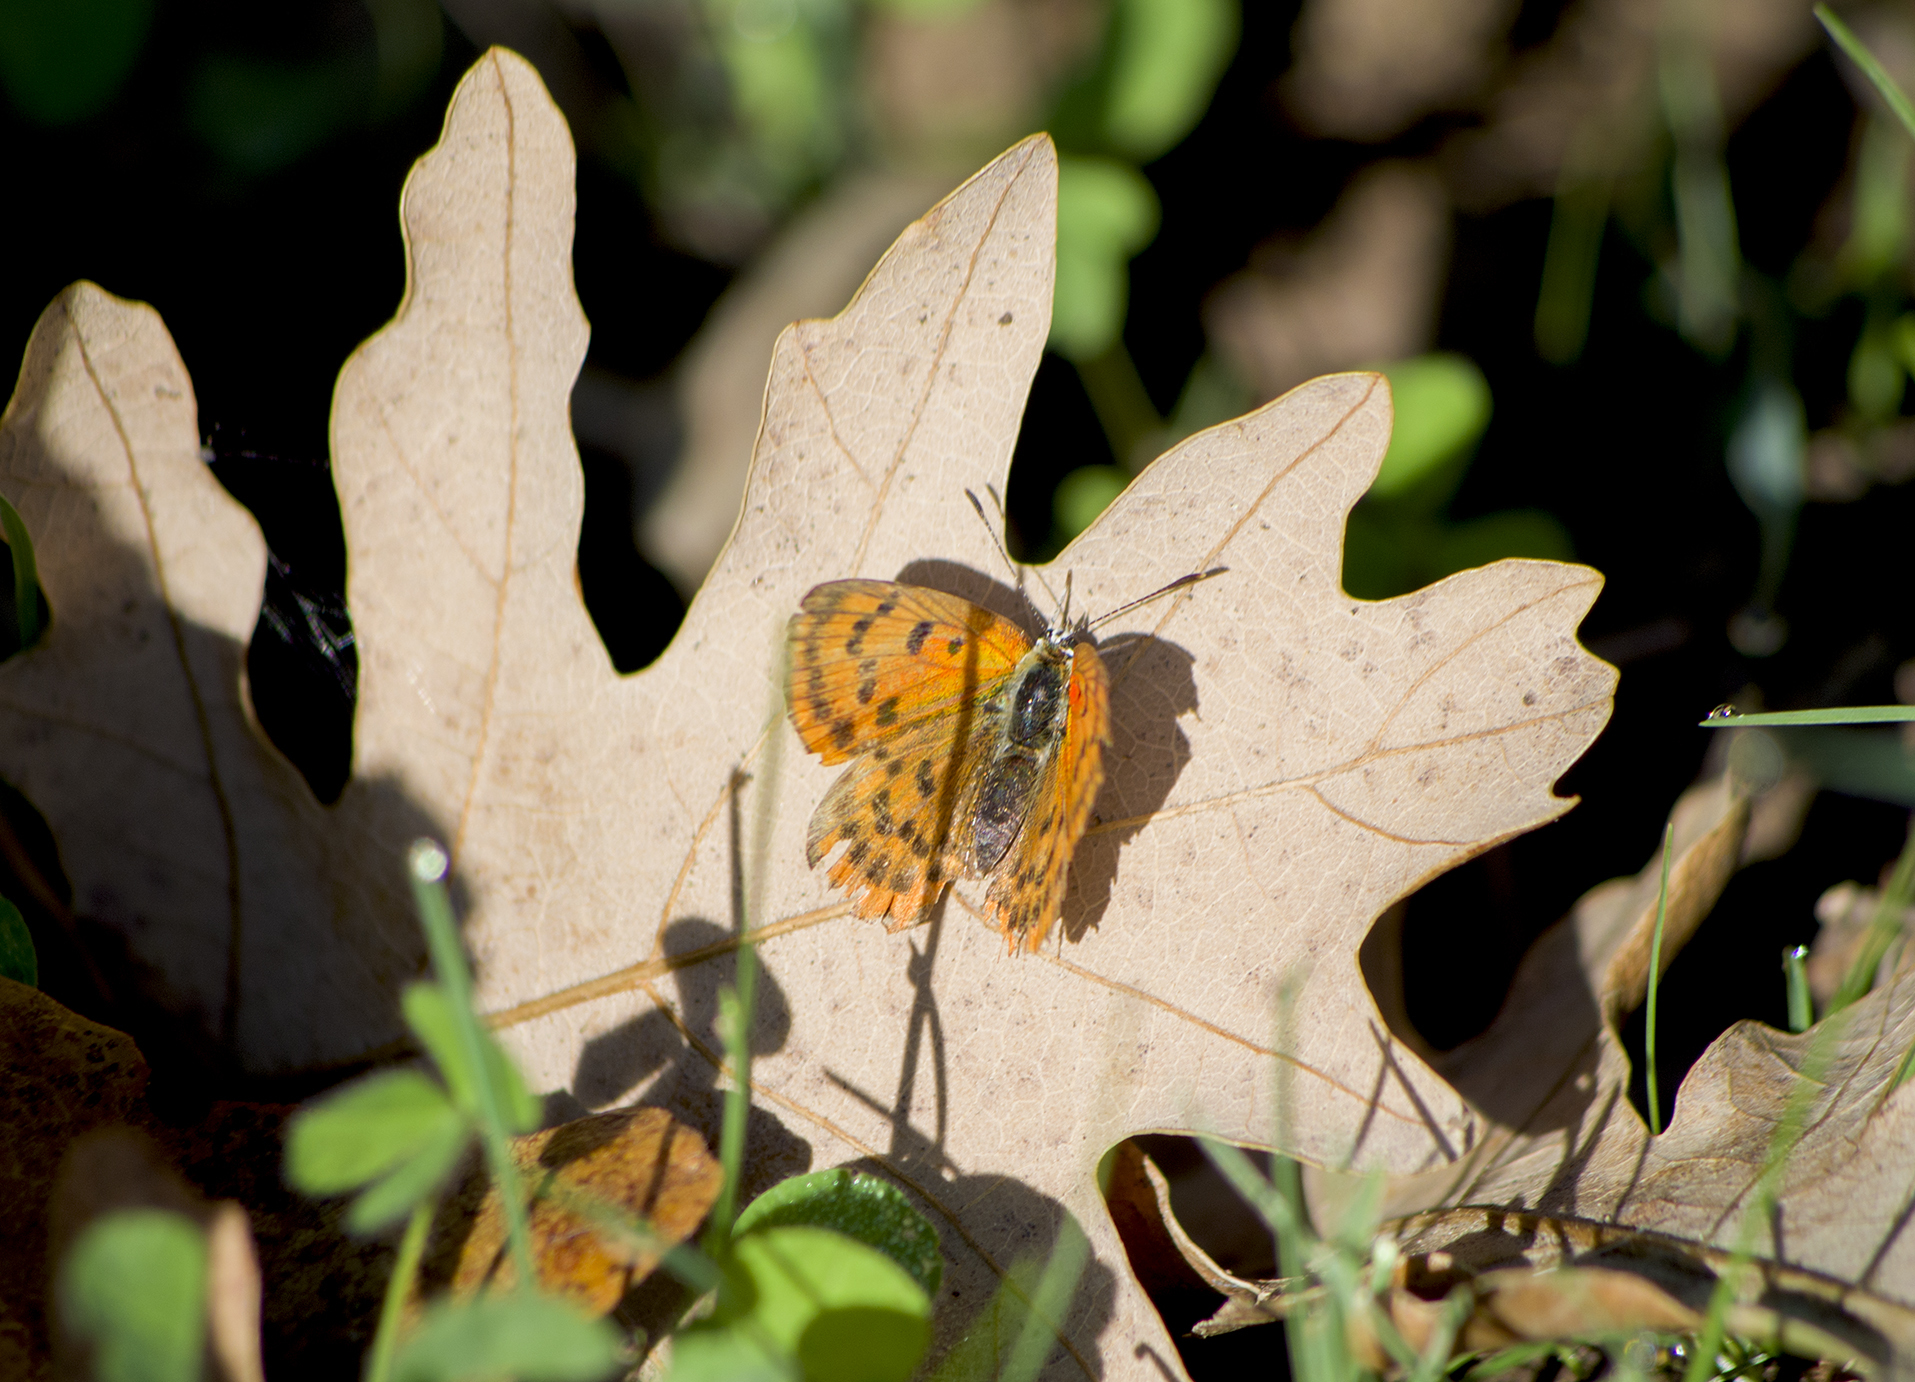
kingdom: Animalia
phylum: Arthropoda
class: Insecta
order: Lepidoptera
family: Lycaenidae
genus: Polyommatus
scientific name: Polyommatus ottomanus
